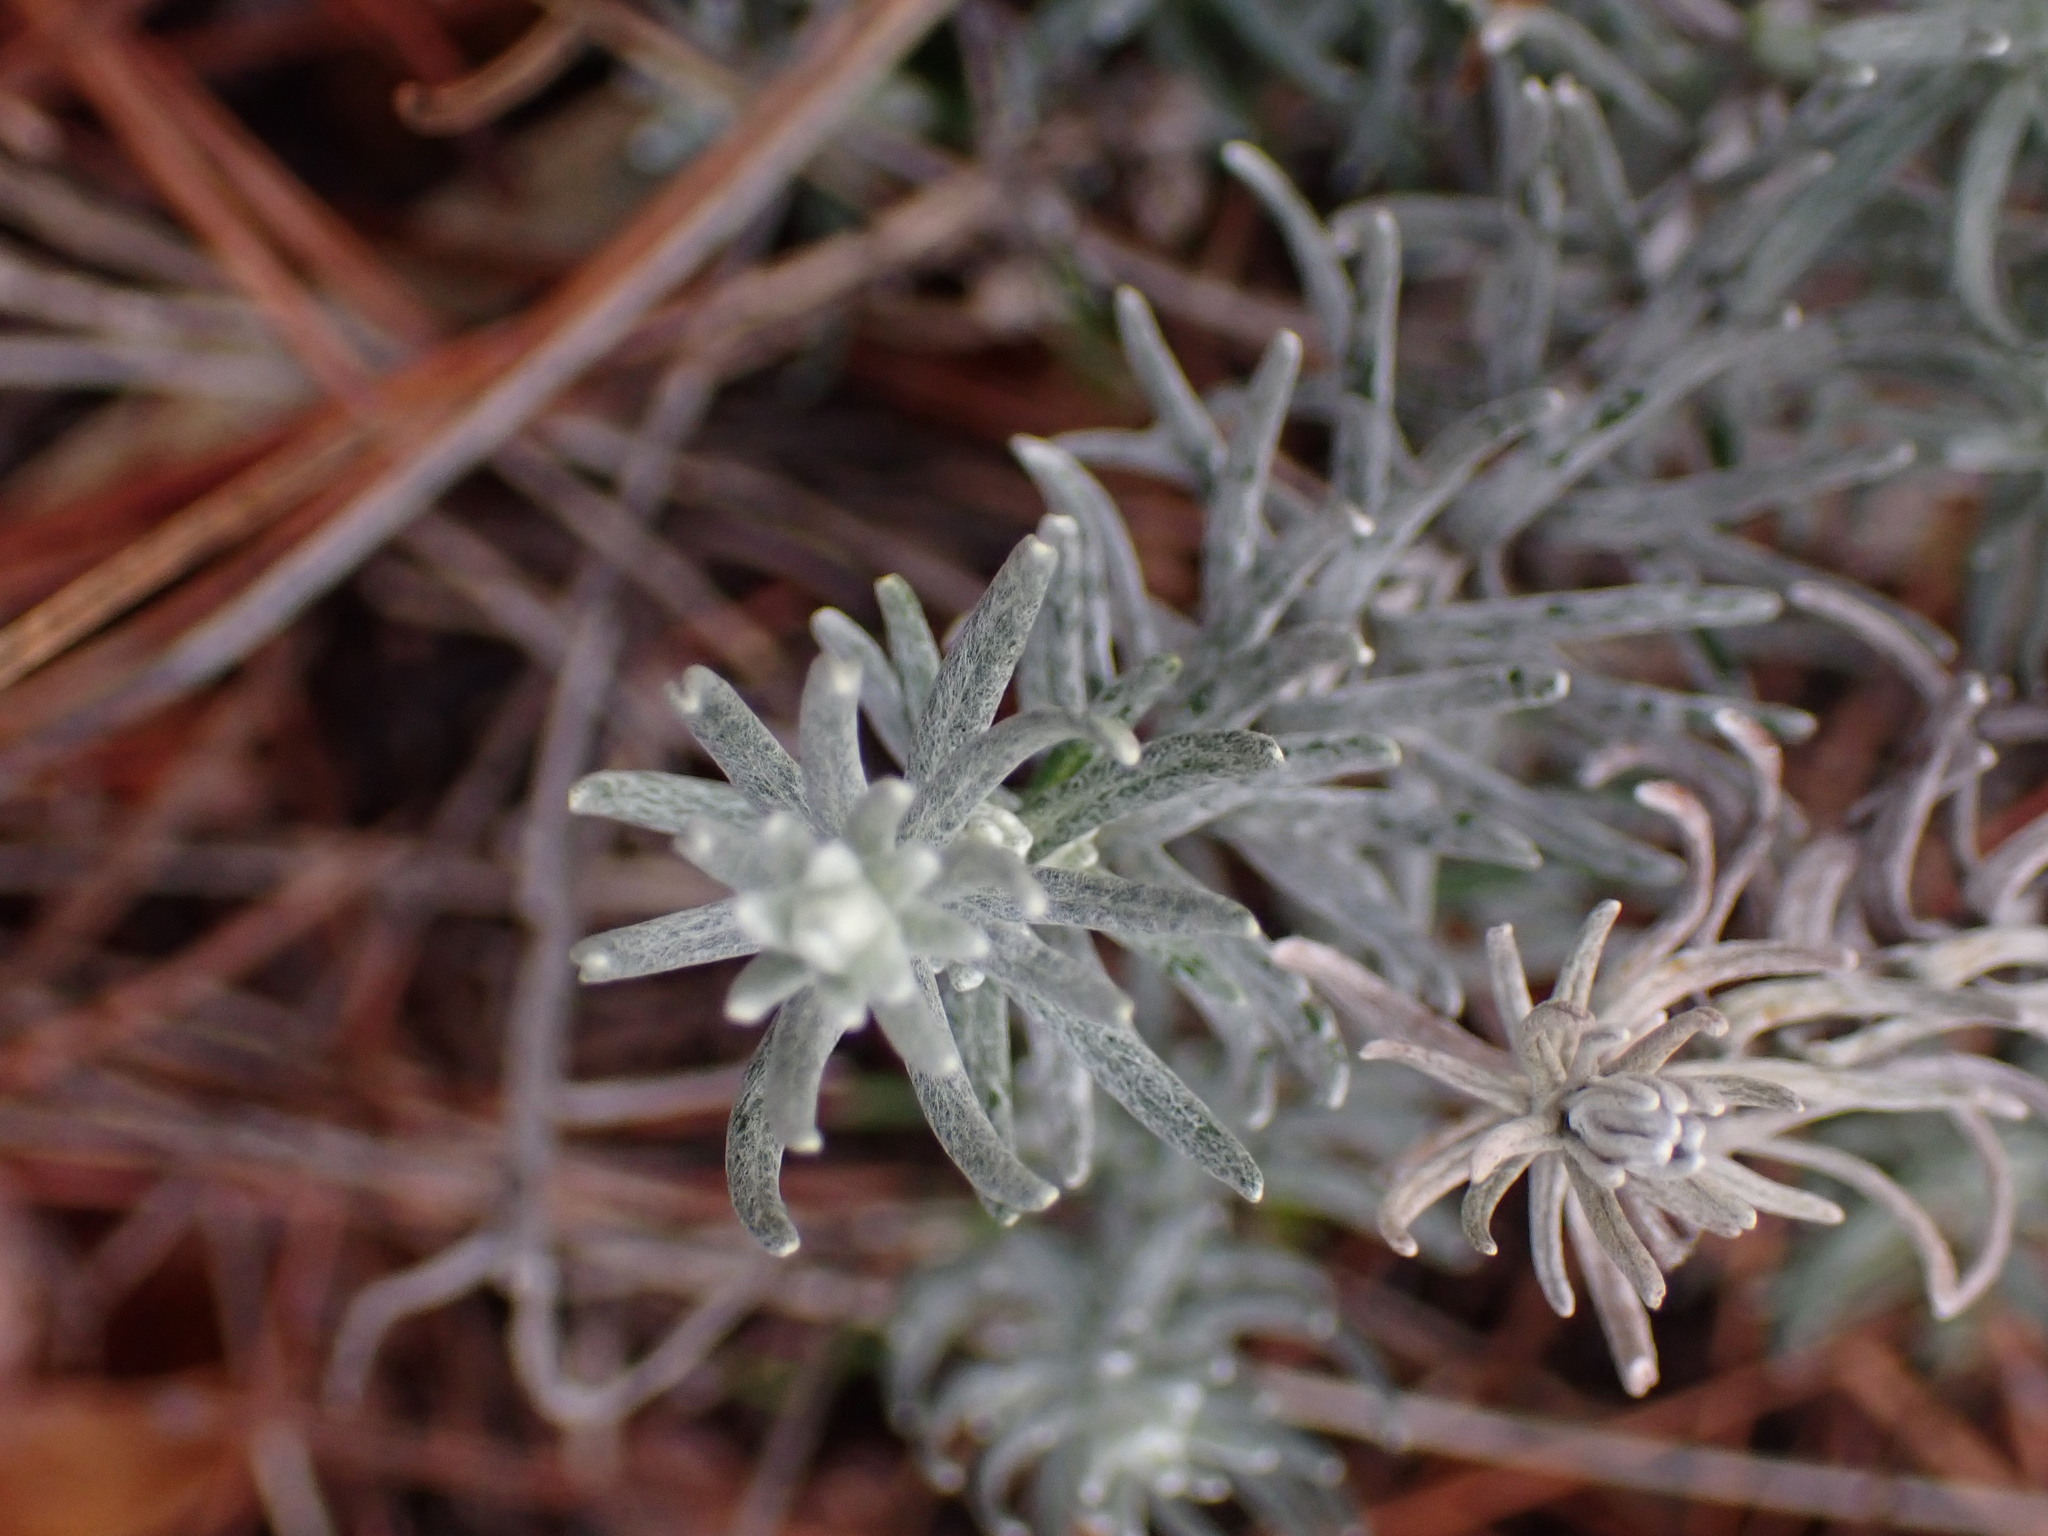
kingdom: Plantae
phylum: Tracheophyta
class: Magnoliopsida
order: Asterales
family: Asteraceae
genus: Helichrysum
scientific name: Helichrysum stoechas
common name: Goldilocks
